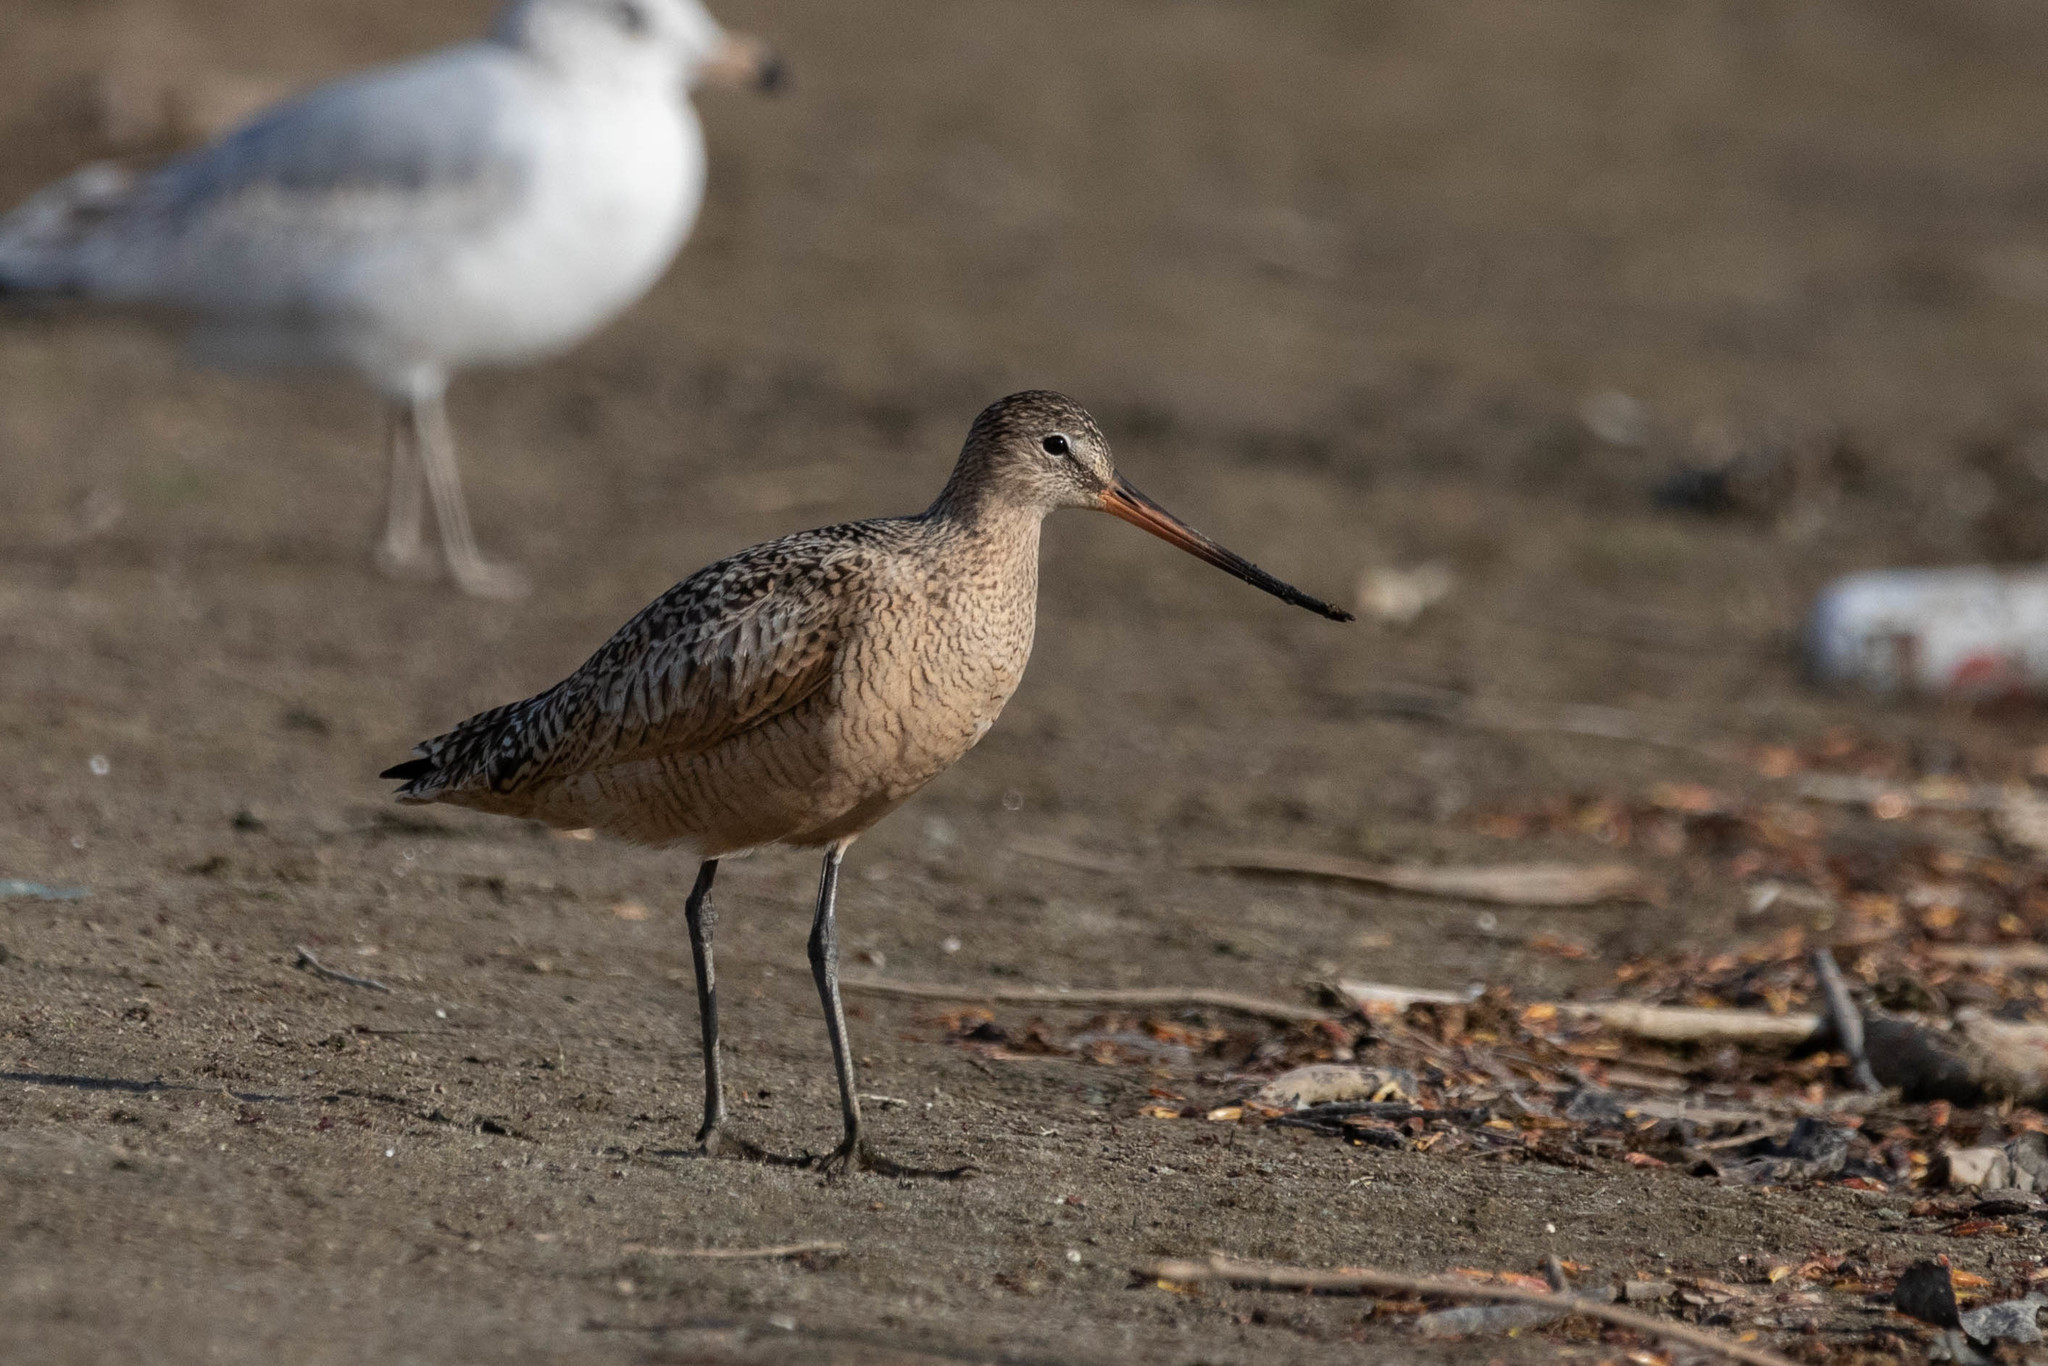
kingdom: Animalia
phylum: Chordata
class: Aves
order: Charadriiformes
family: Scolopacidae
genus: Limosa
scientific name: Limosa fedoa
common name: Marbled godwit
